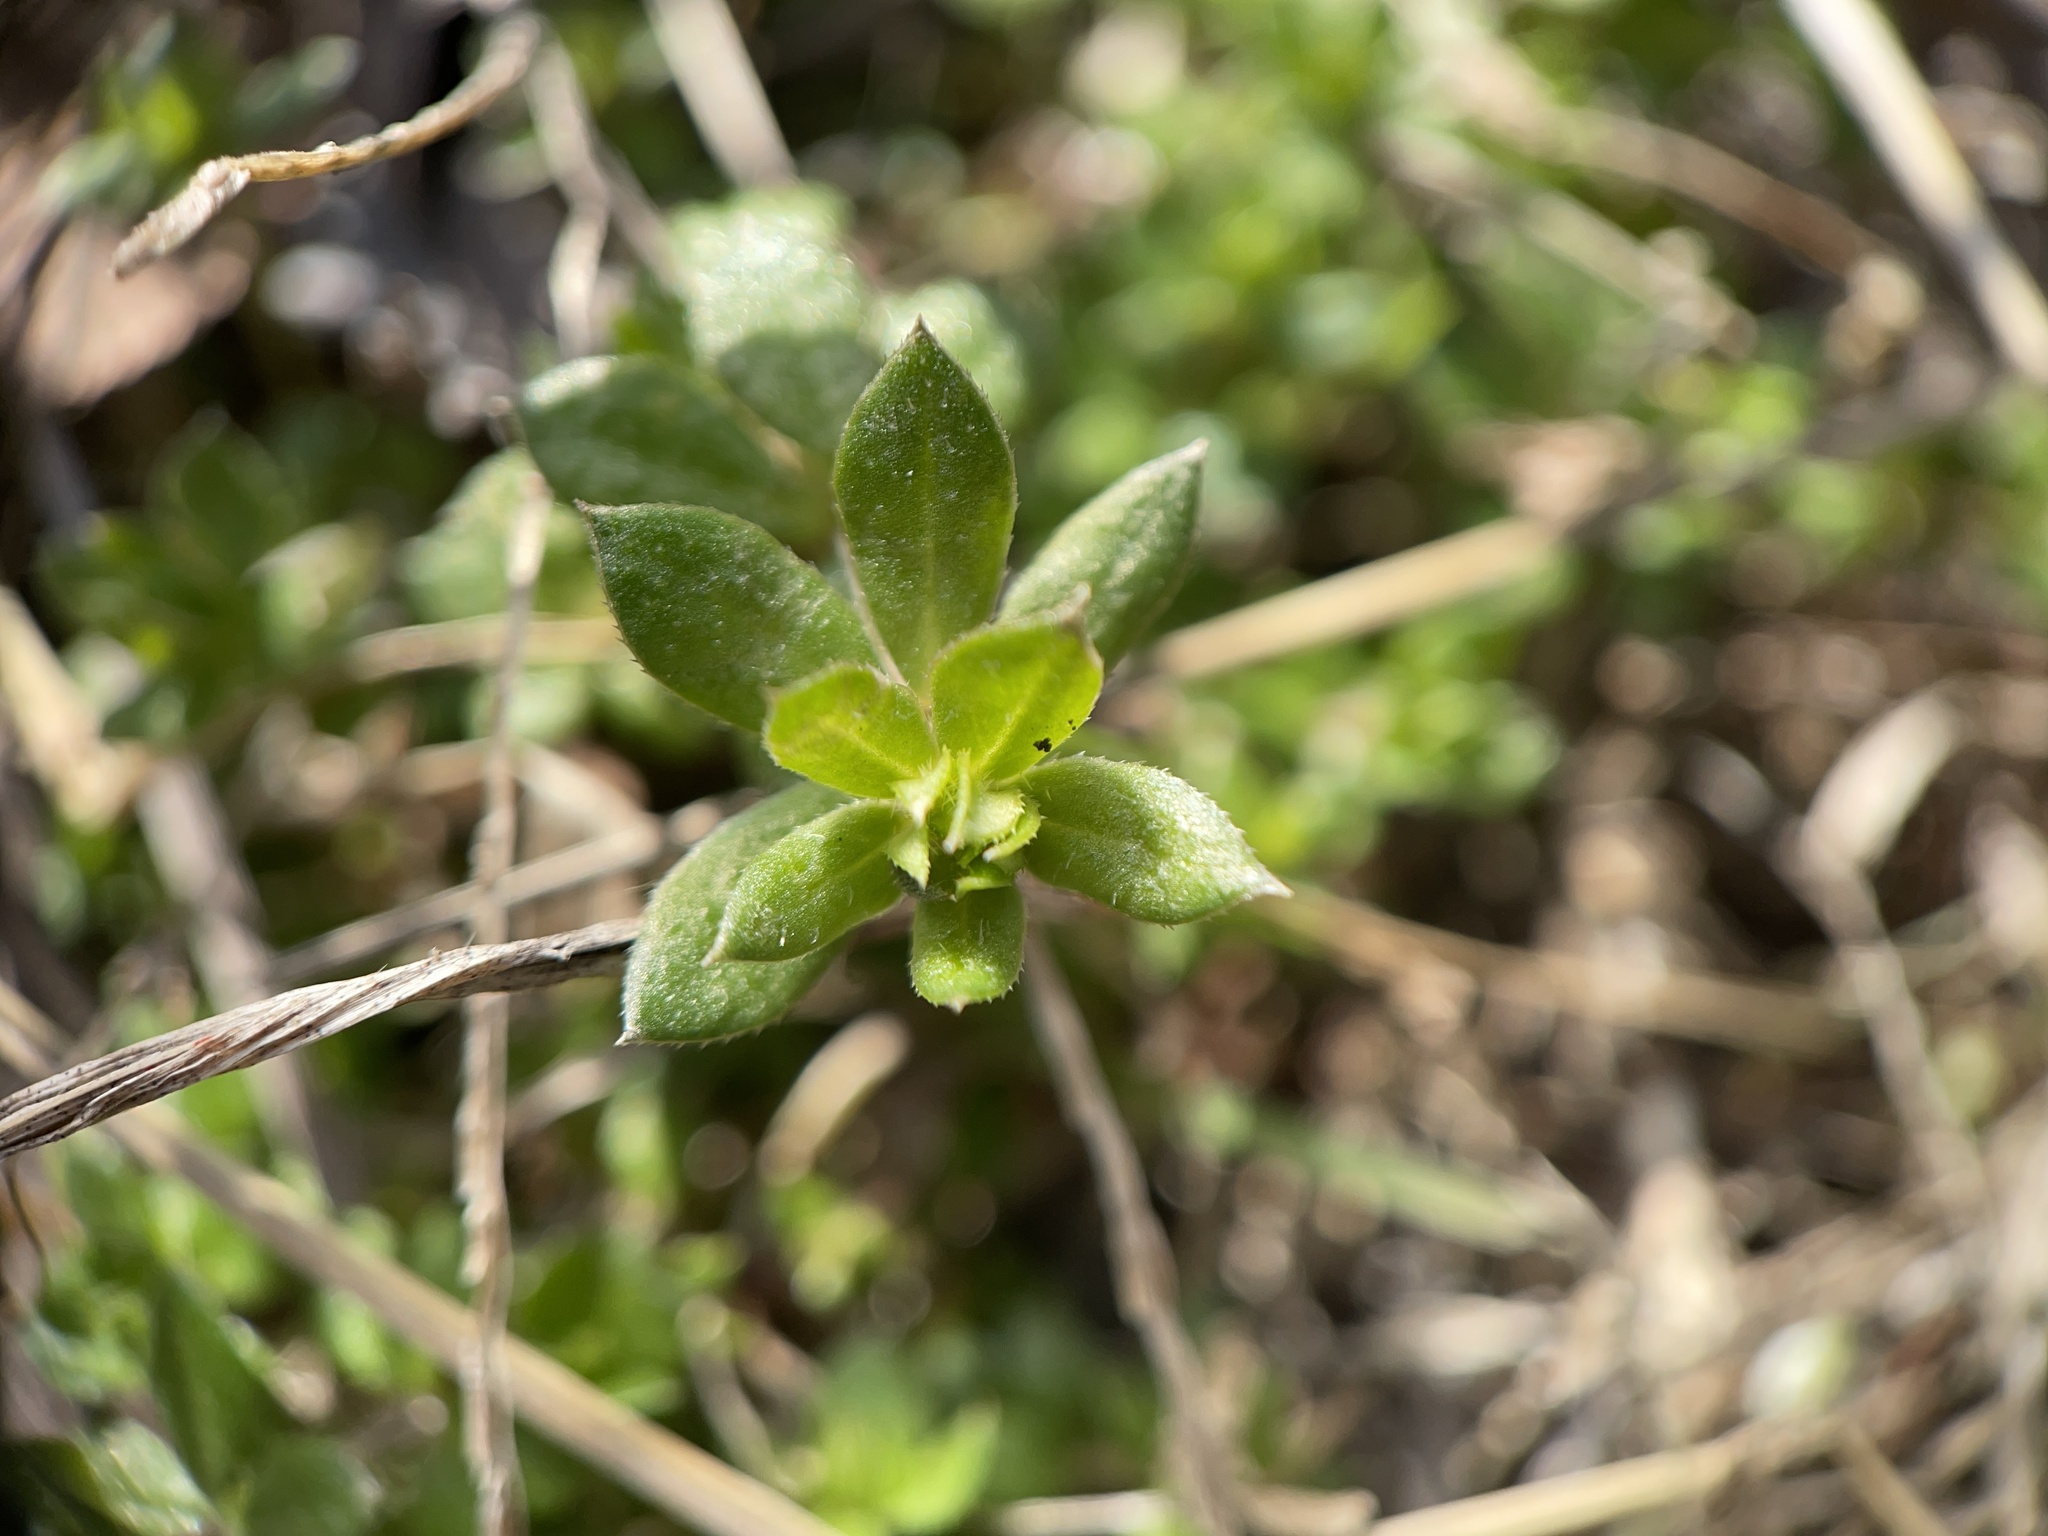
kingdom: Plantae
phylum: Tracheophyta
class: Magnoliopsida
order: Gentianales
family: Rubiaceae
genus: Sherardia
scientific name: Sherardia arvensis
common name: Field madder
